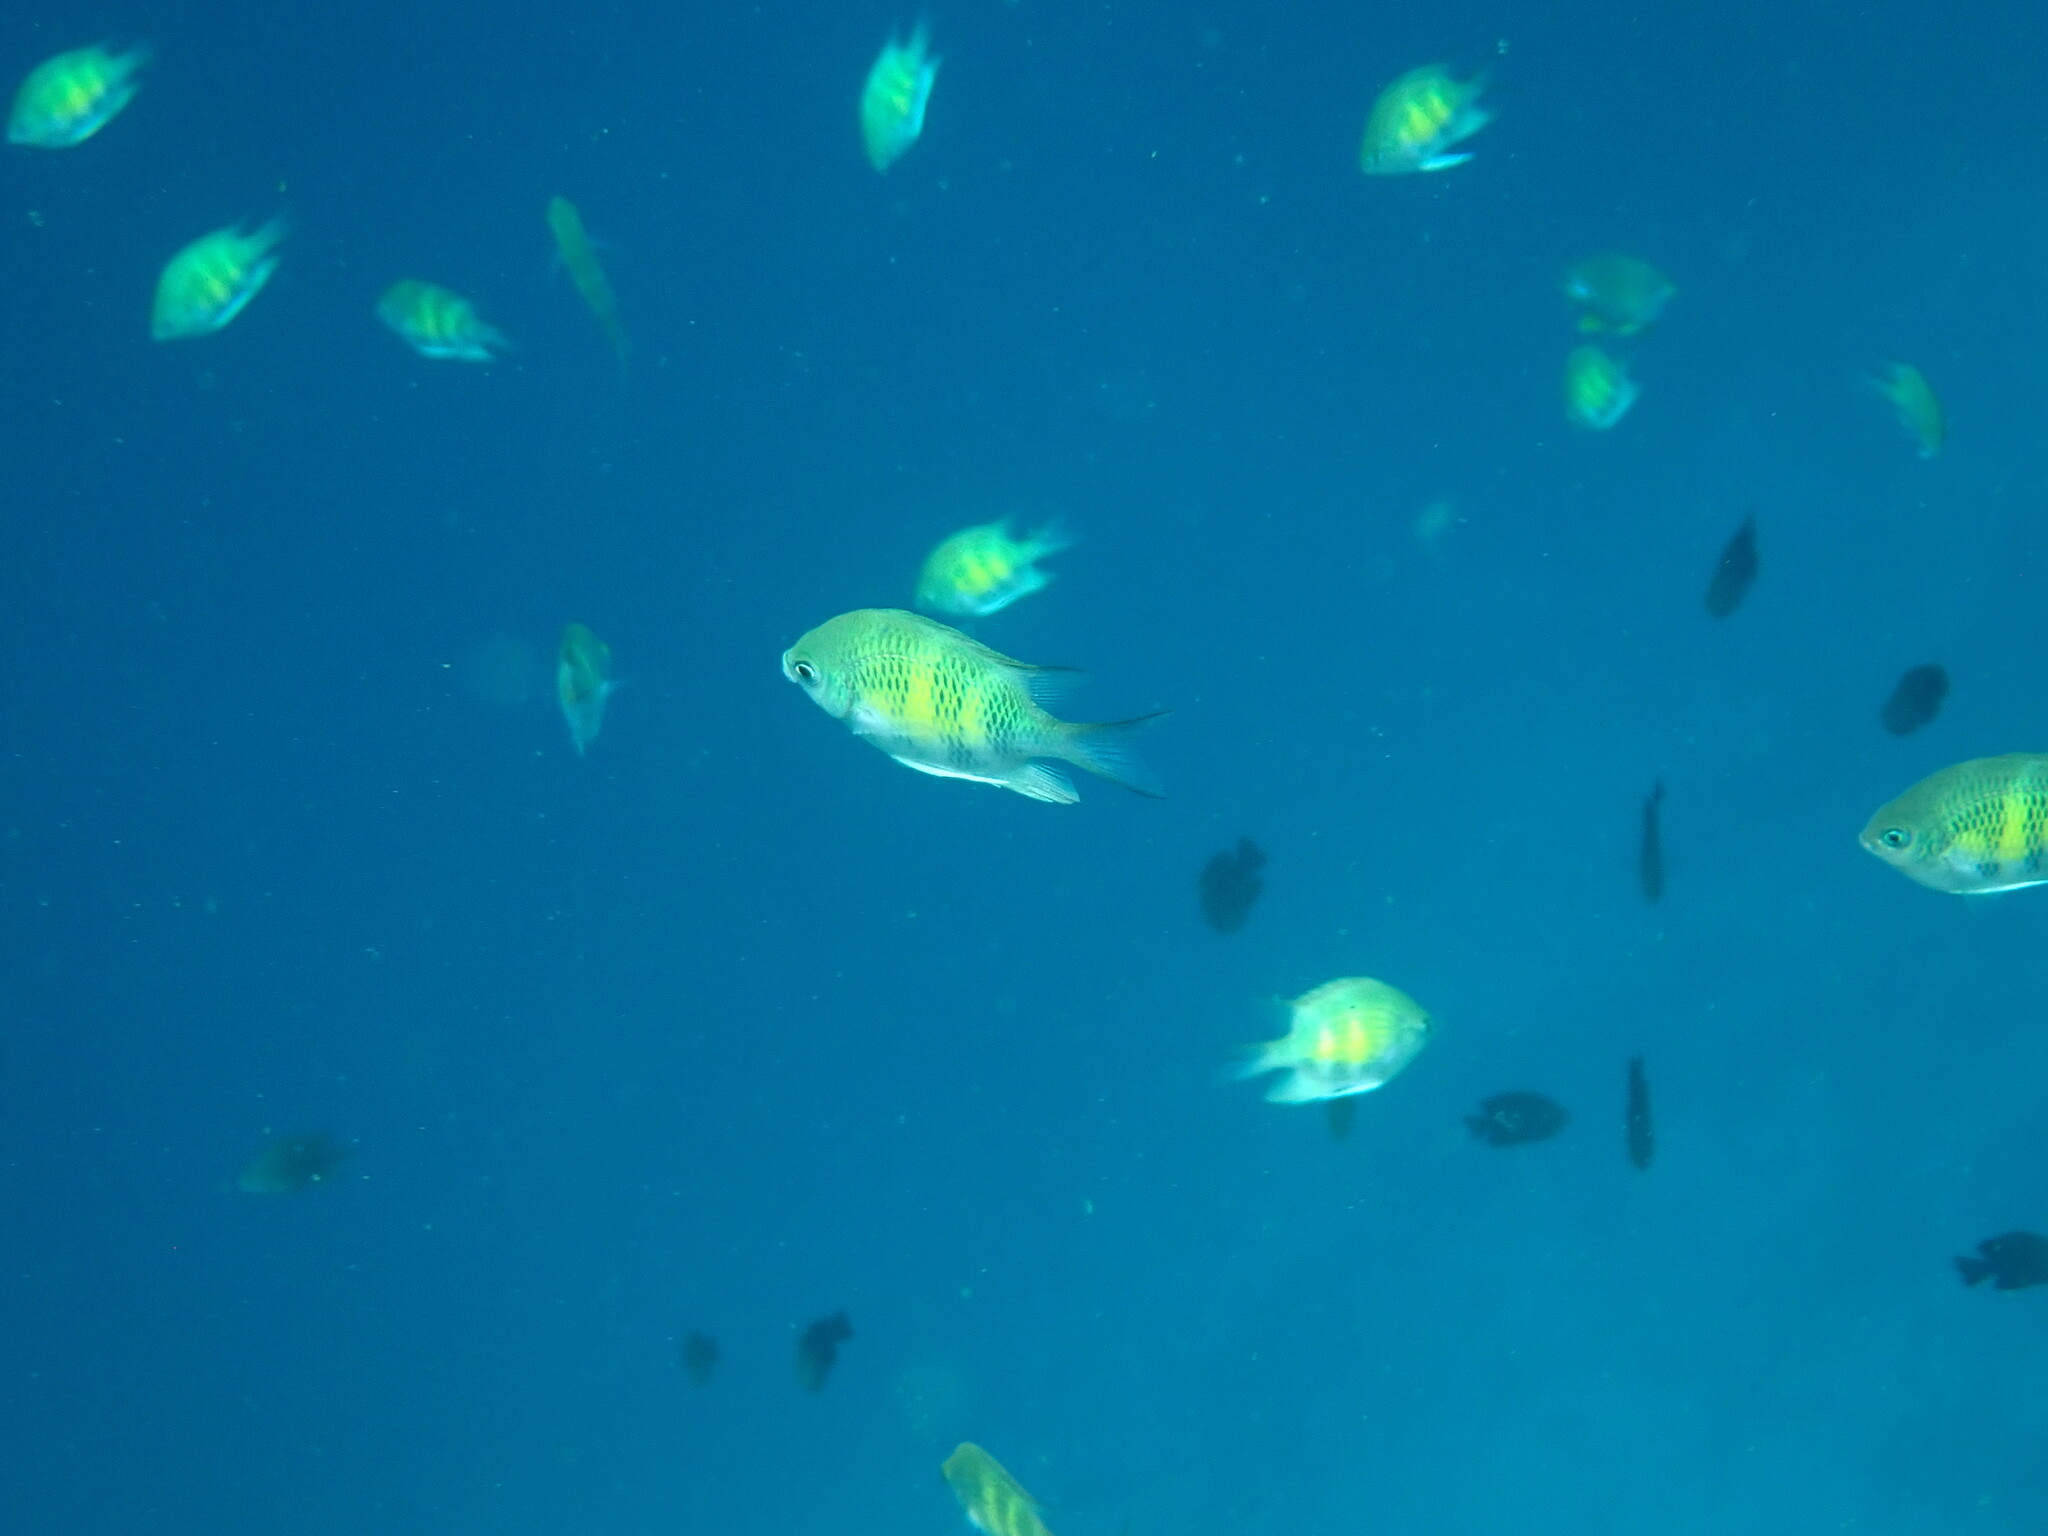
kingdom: Animalia
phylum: Chordata
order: Perciformes
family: Pomacentridae
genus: Amblyglyphidodon
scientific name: Amblyglyphidodon curacao
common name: Staghorn damsel
